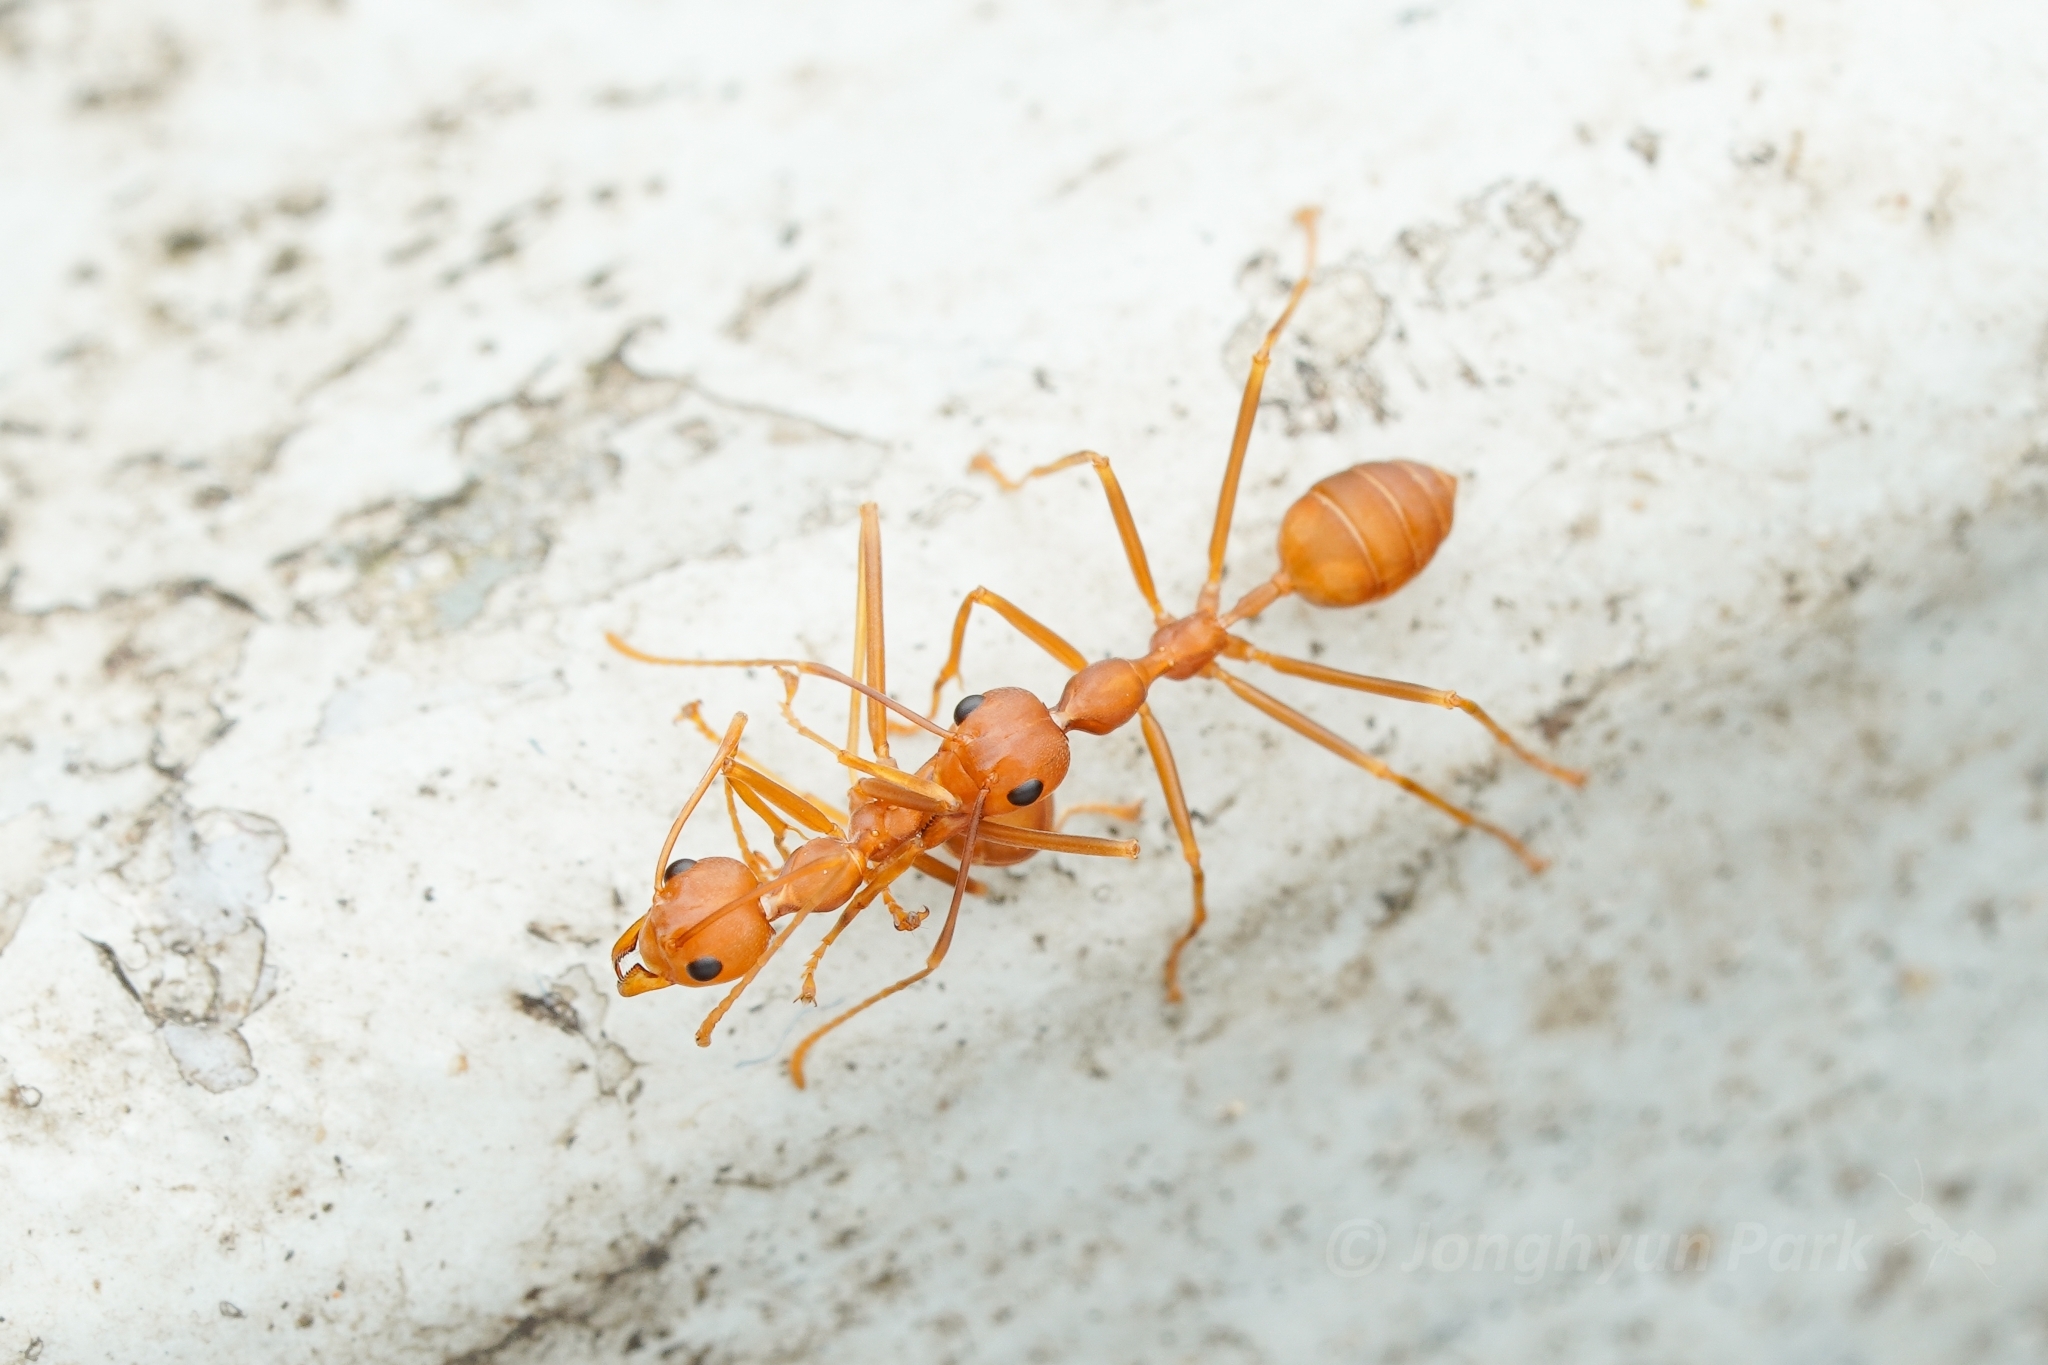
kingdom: Animalia
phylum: Arthropoda
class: Insecta
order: Hymenoptera
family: Formicidae
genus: Oecophylla
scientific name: Oecophylla smaragdina
